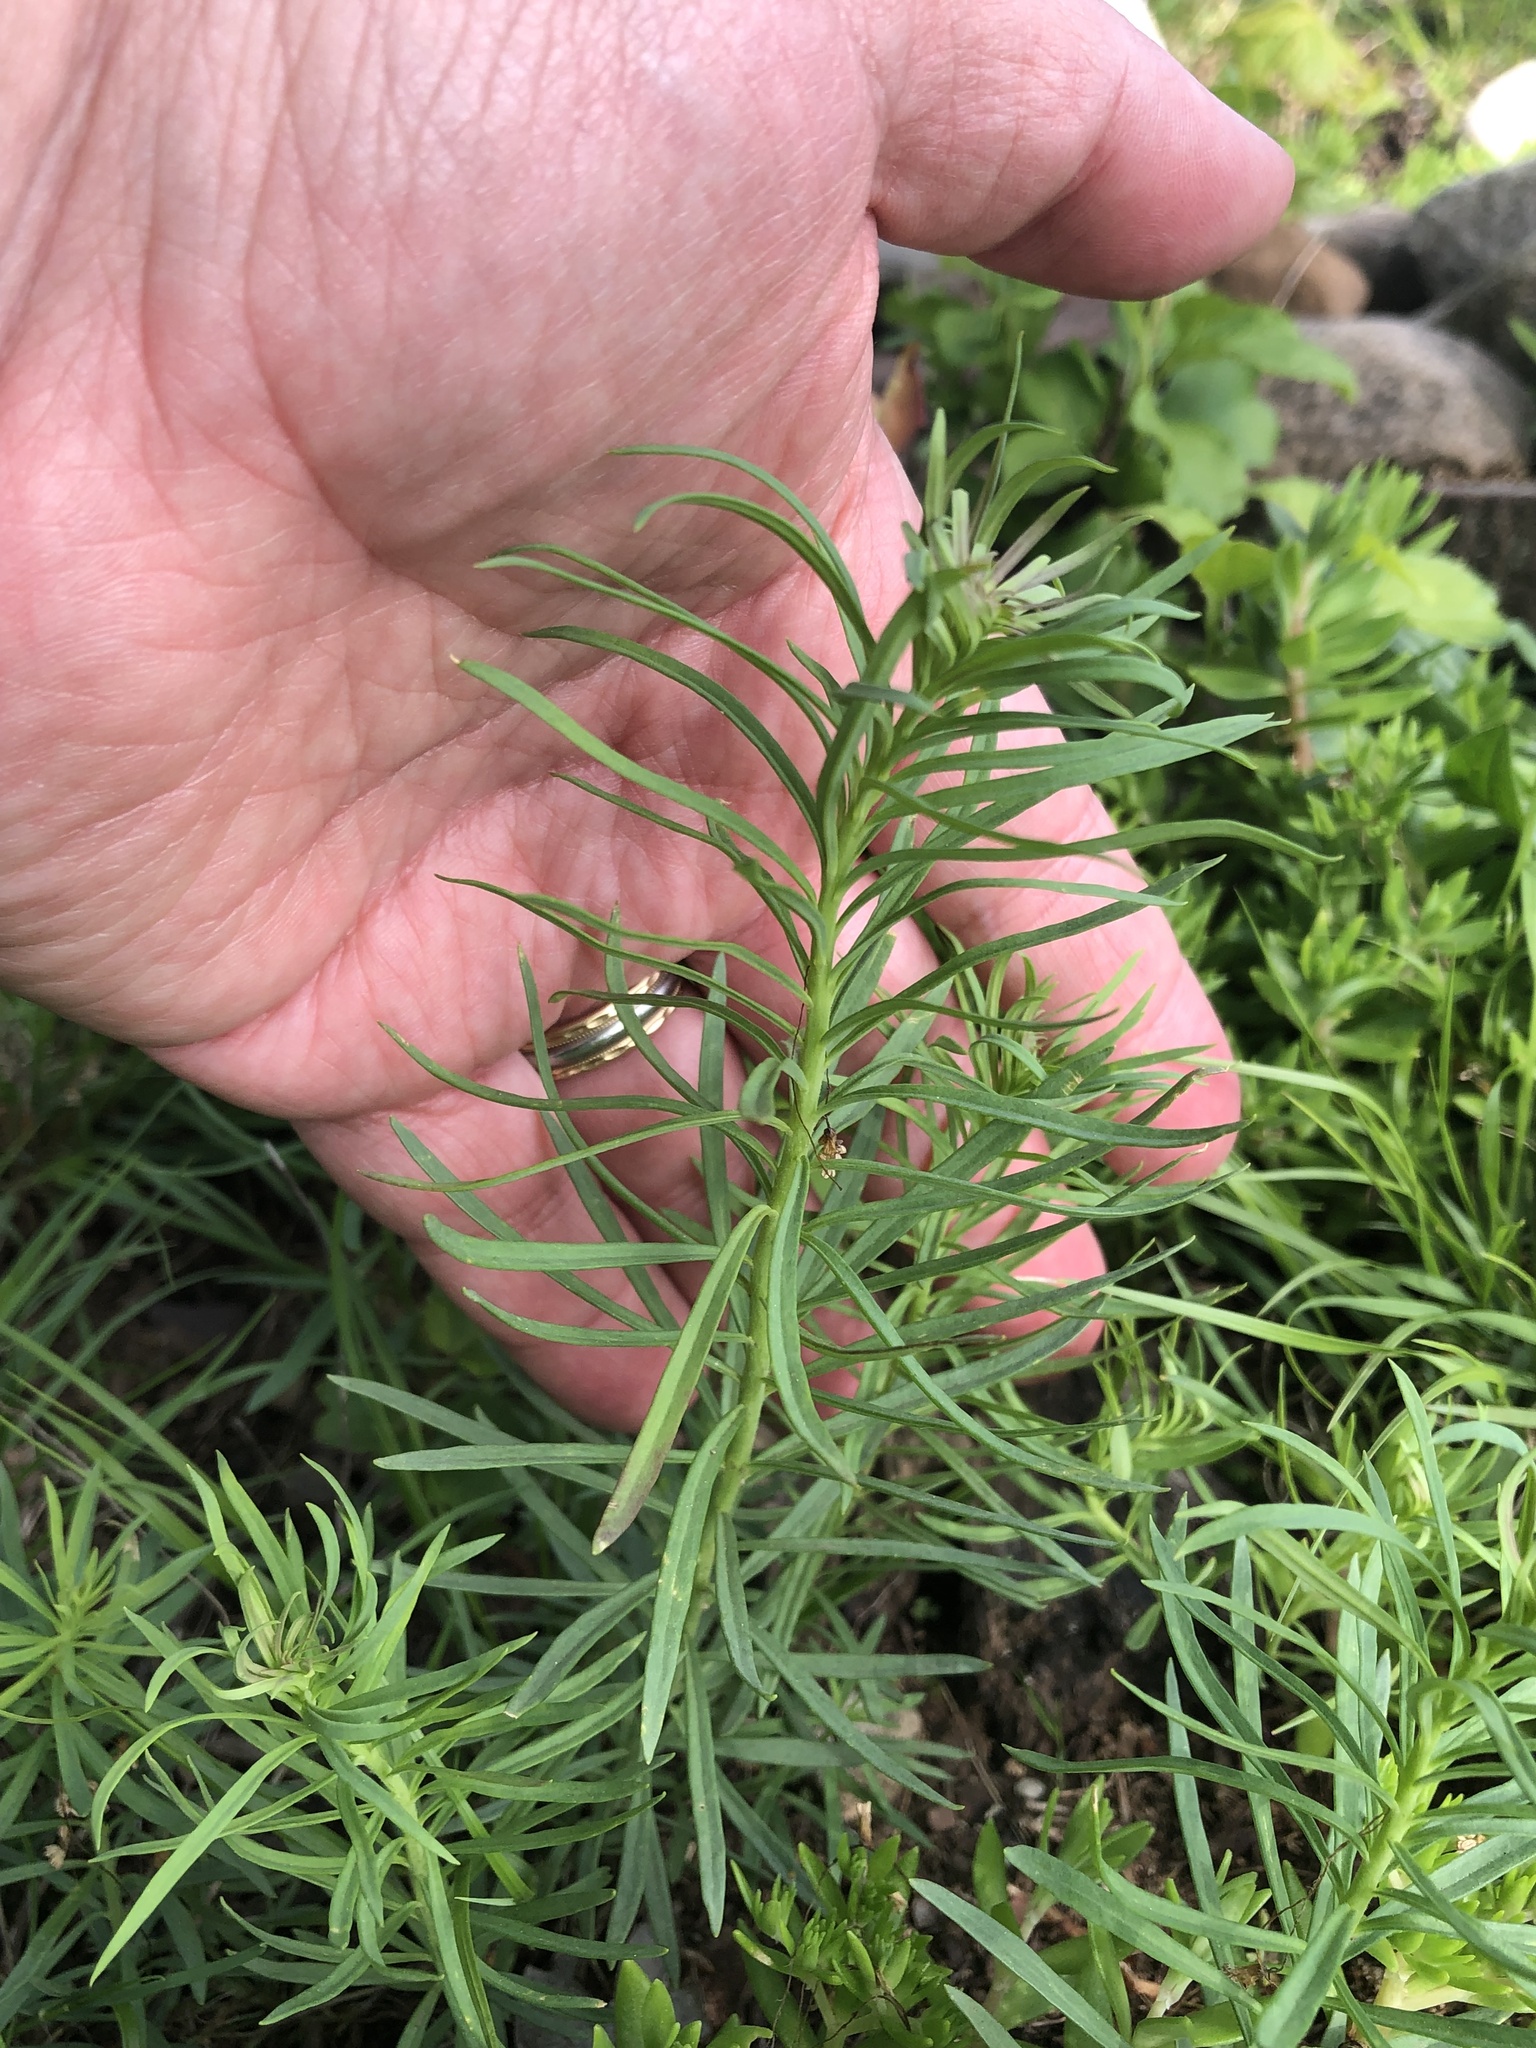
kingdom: Plantae
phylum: Tracheophyta
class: Magnoliopsida
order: Lamiales
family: Plantaginaceae
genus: Linaria
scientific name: Linaria vulgaris
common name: Butter and eggs
